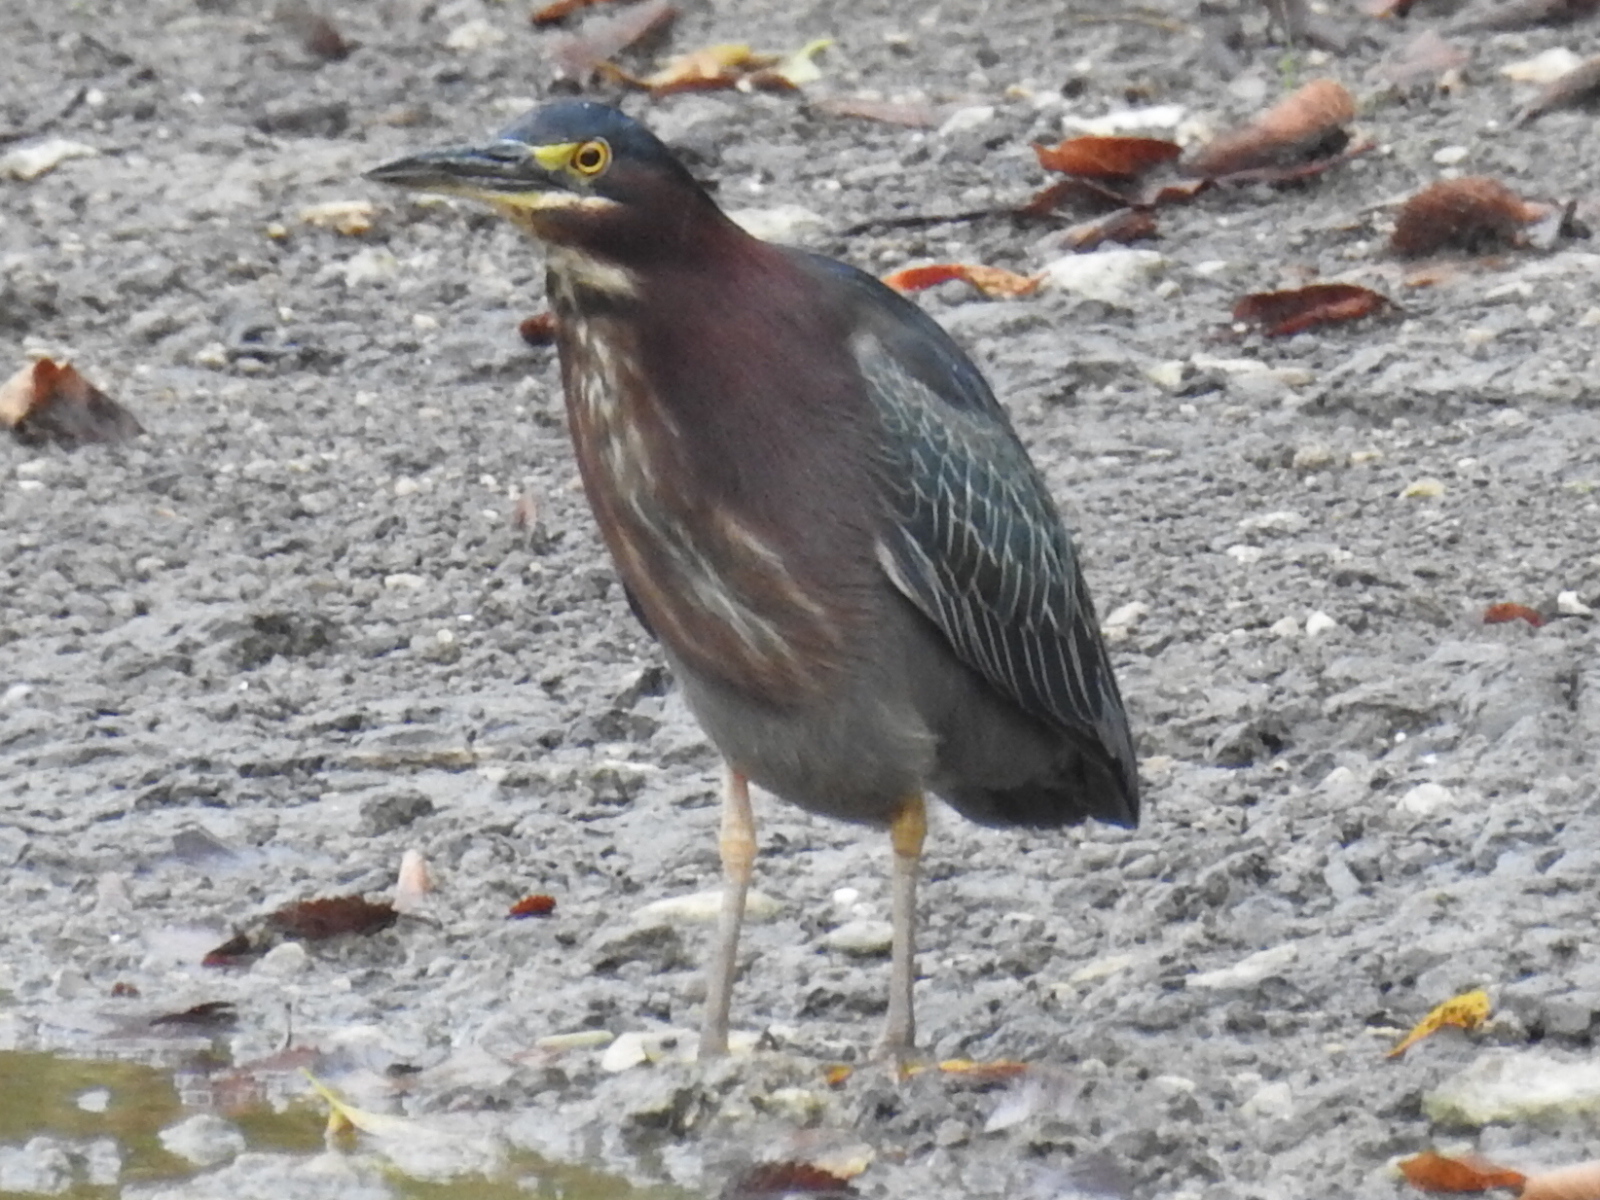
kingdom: Animalia
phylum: Chordata
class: Aves
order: Pelecaniformes
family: Ardeidae
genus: Butorides
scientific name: Butorides virescens
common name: Green heron
